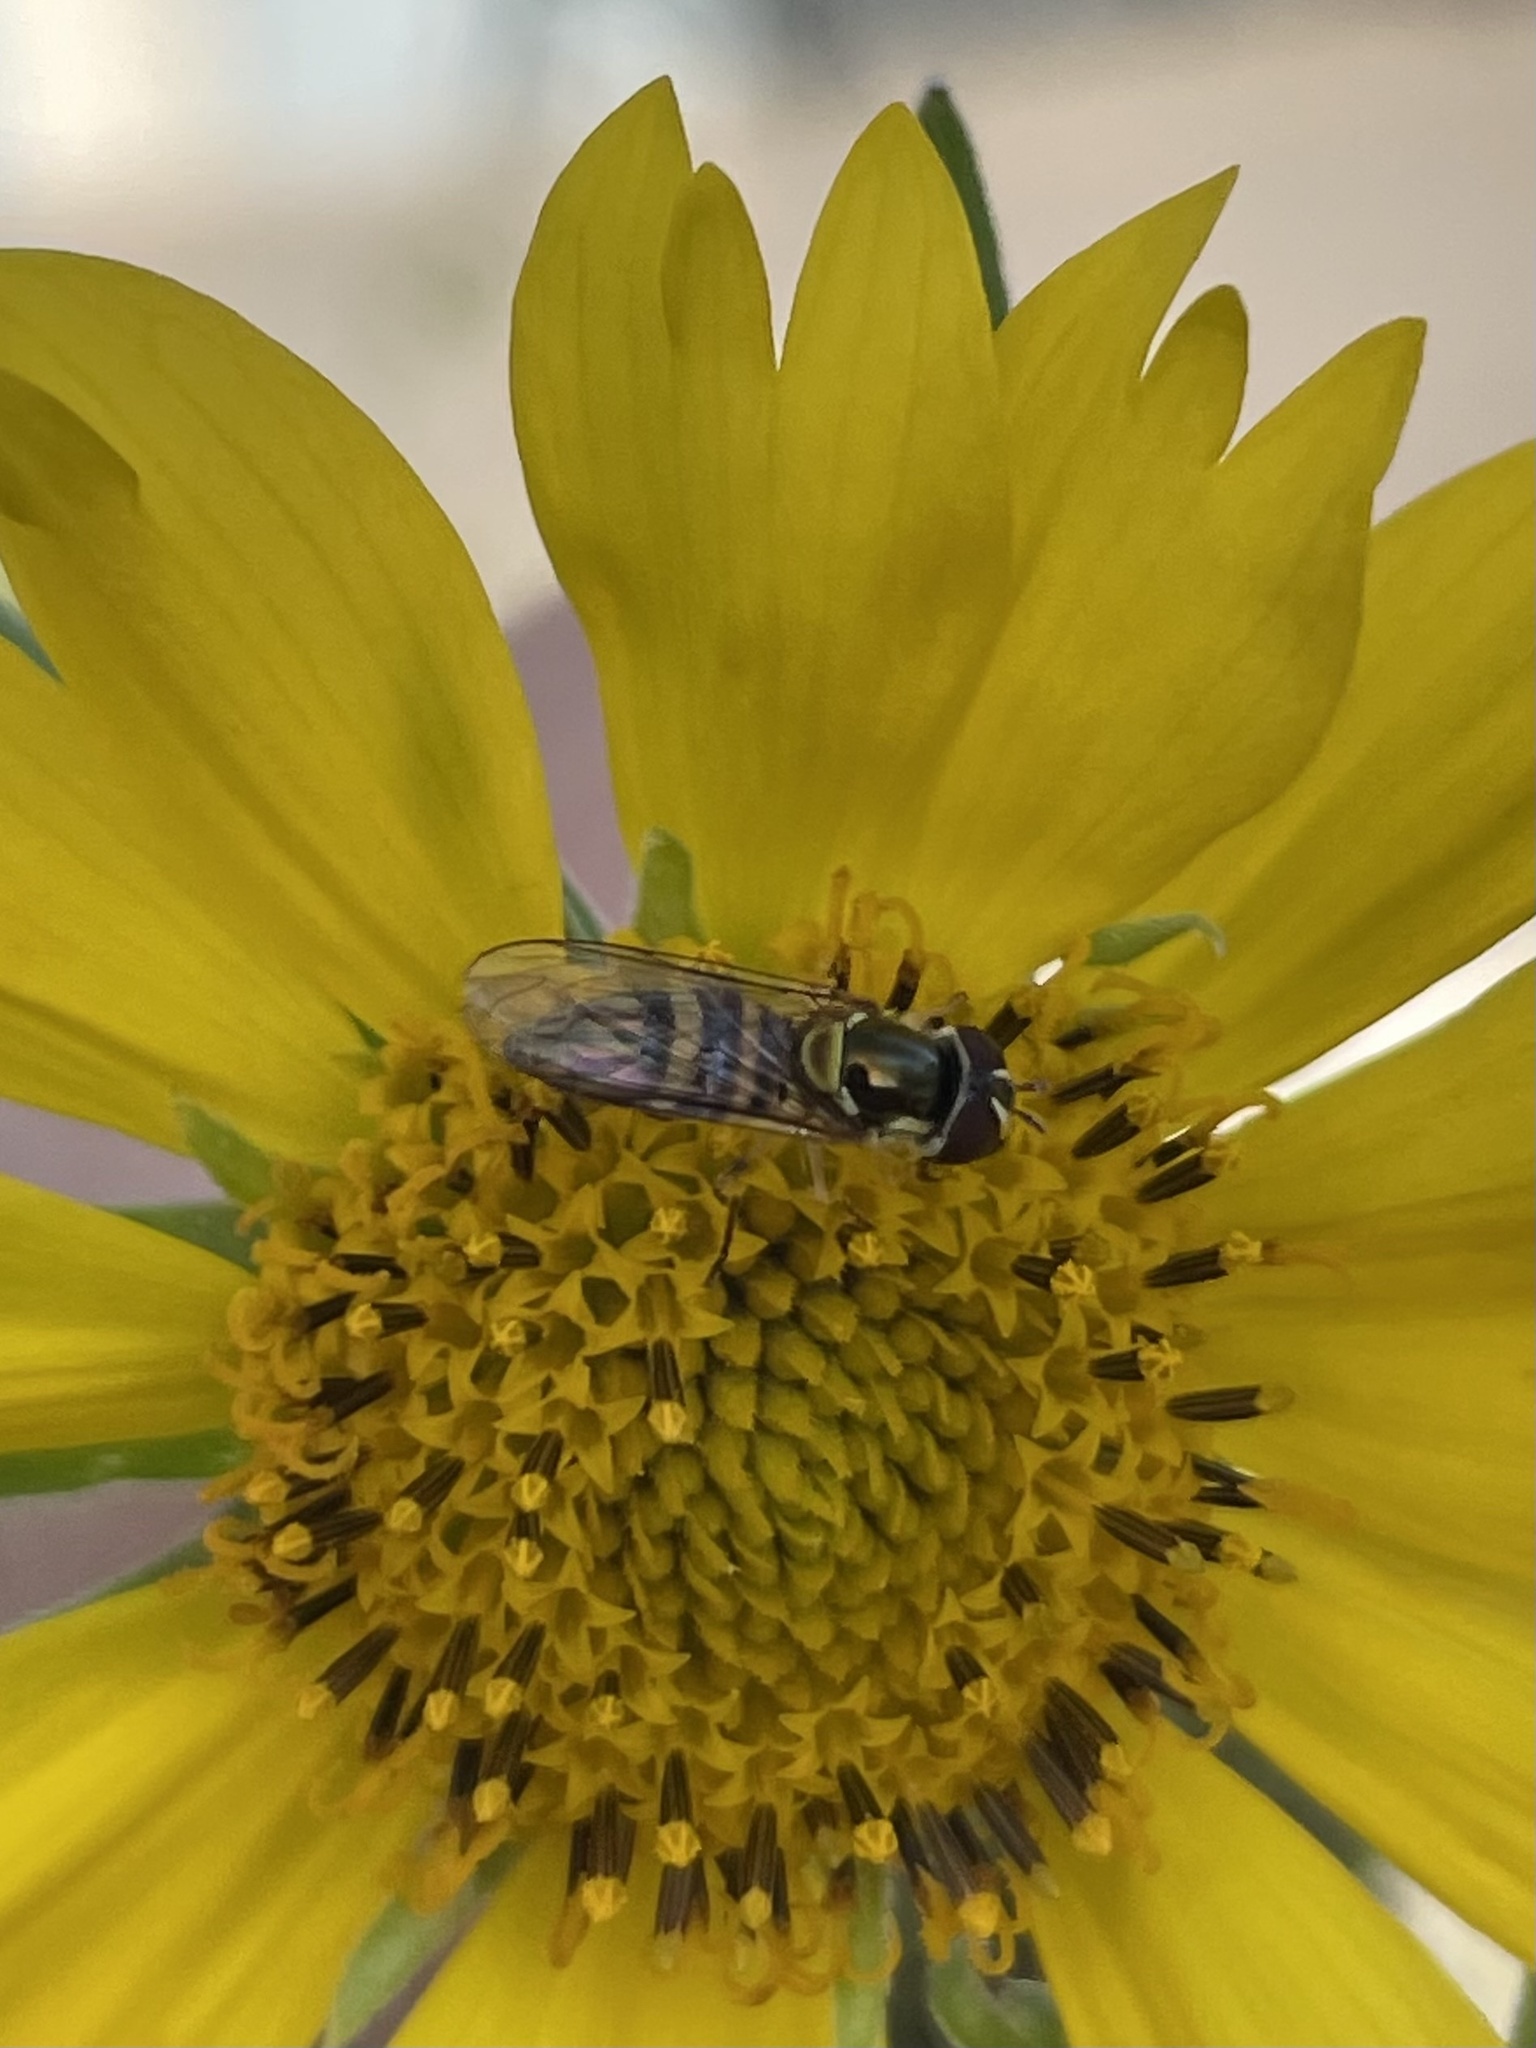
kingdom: Animalia
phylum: Arthropoda
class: Insecta
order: Diptera
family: Syrphidae
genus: Allograpta
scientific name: Allograpta obliqua
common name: Common oblique syrphid
